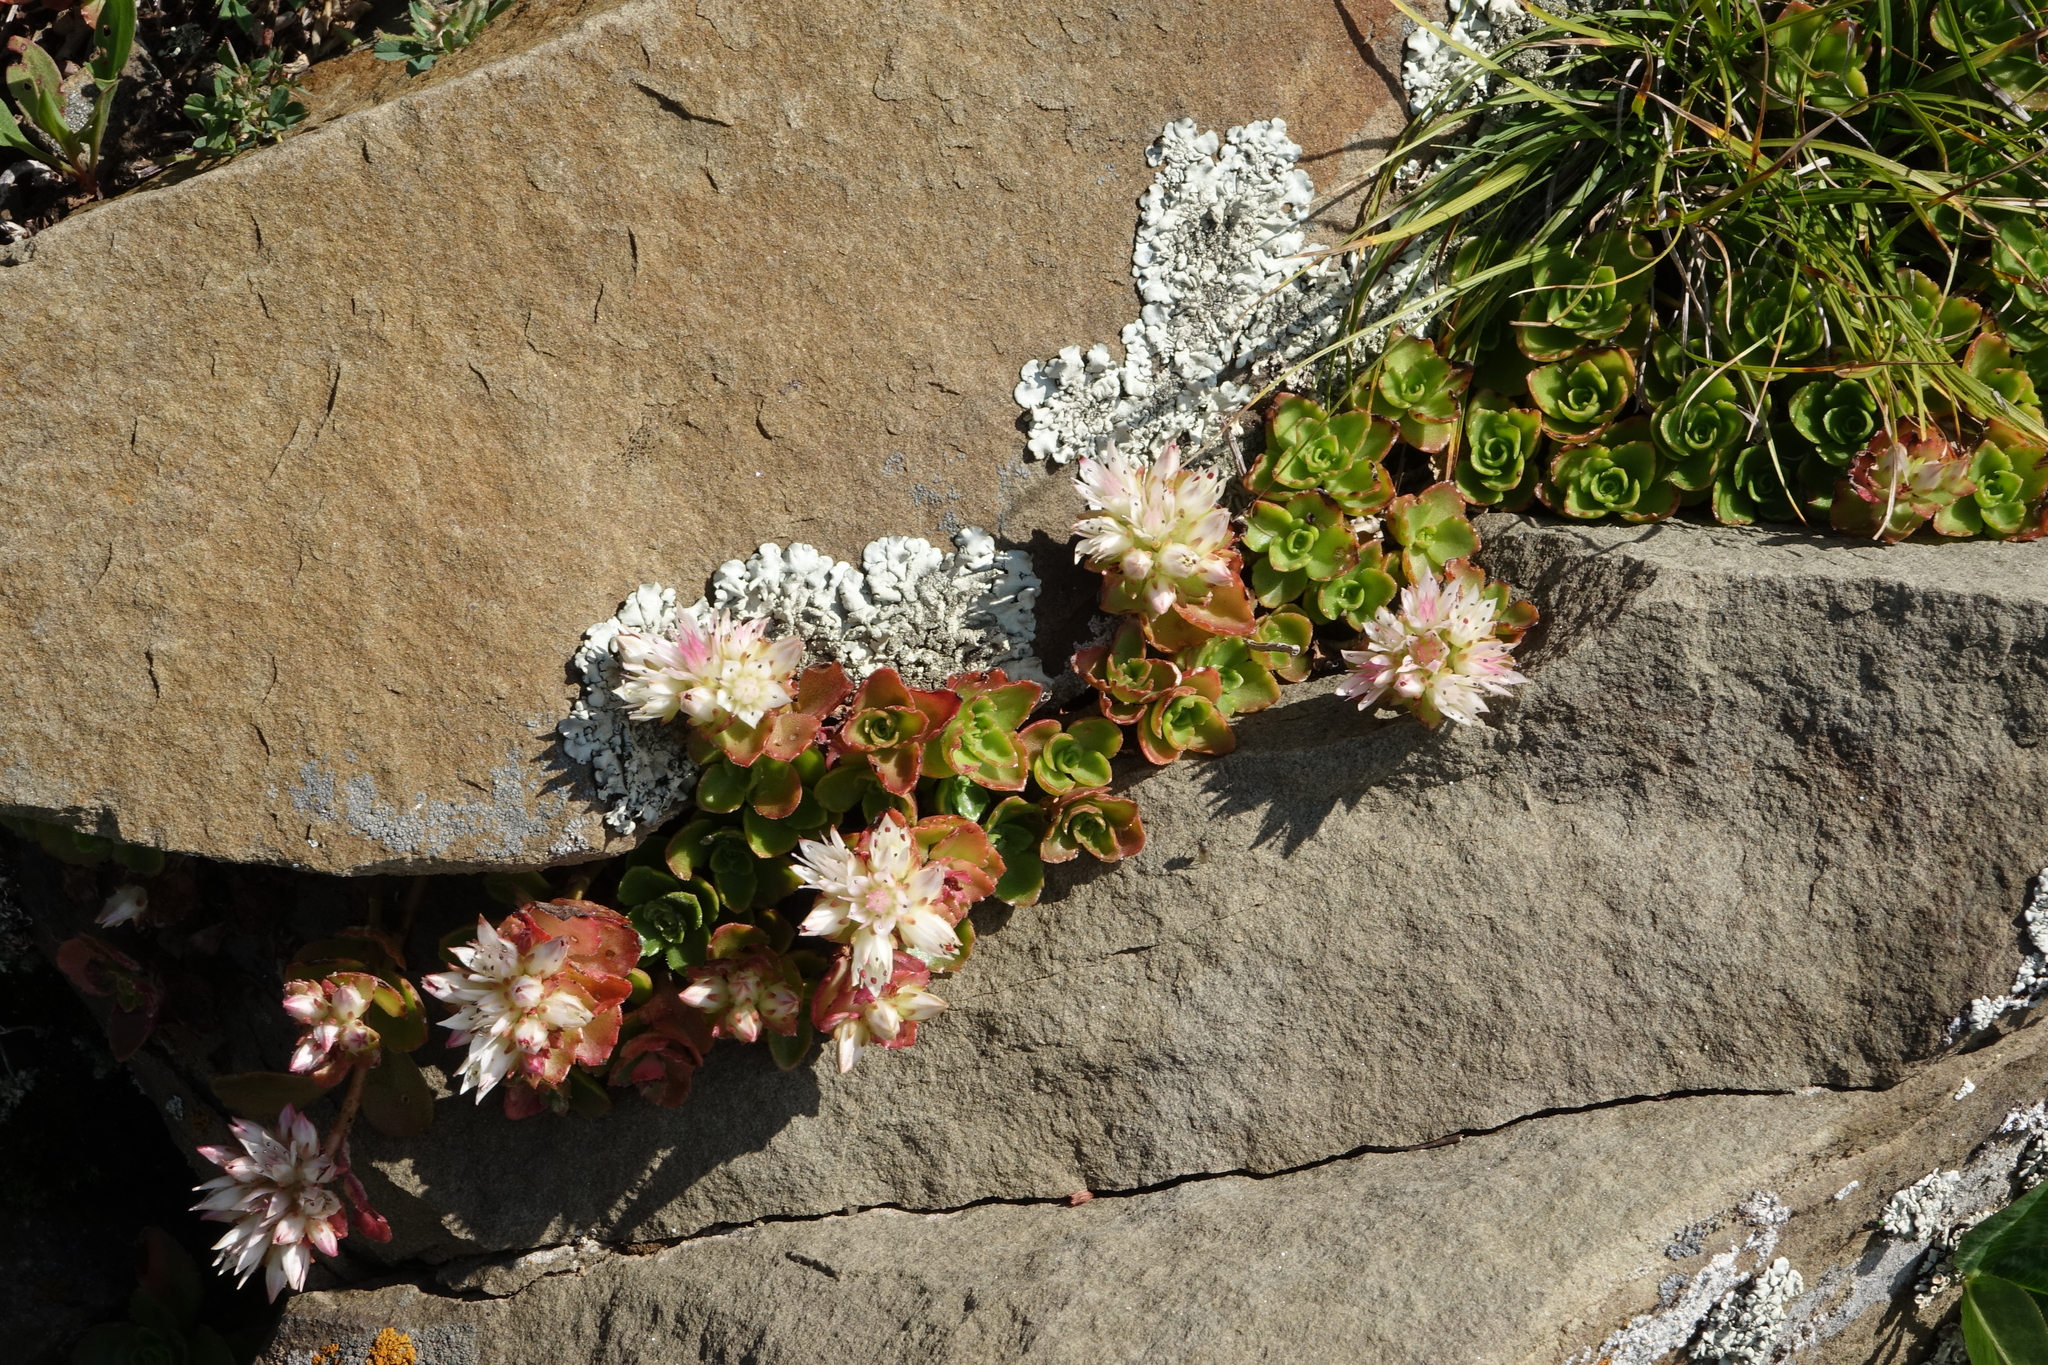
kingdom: Plantae
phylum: Tracheophyta
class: Magnoliopsida
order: Saxifragales
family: Crassulaceae
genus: Phedimus
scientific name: Phedimus spurius
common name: Caucasian stonecrop
